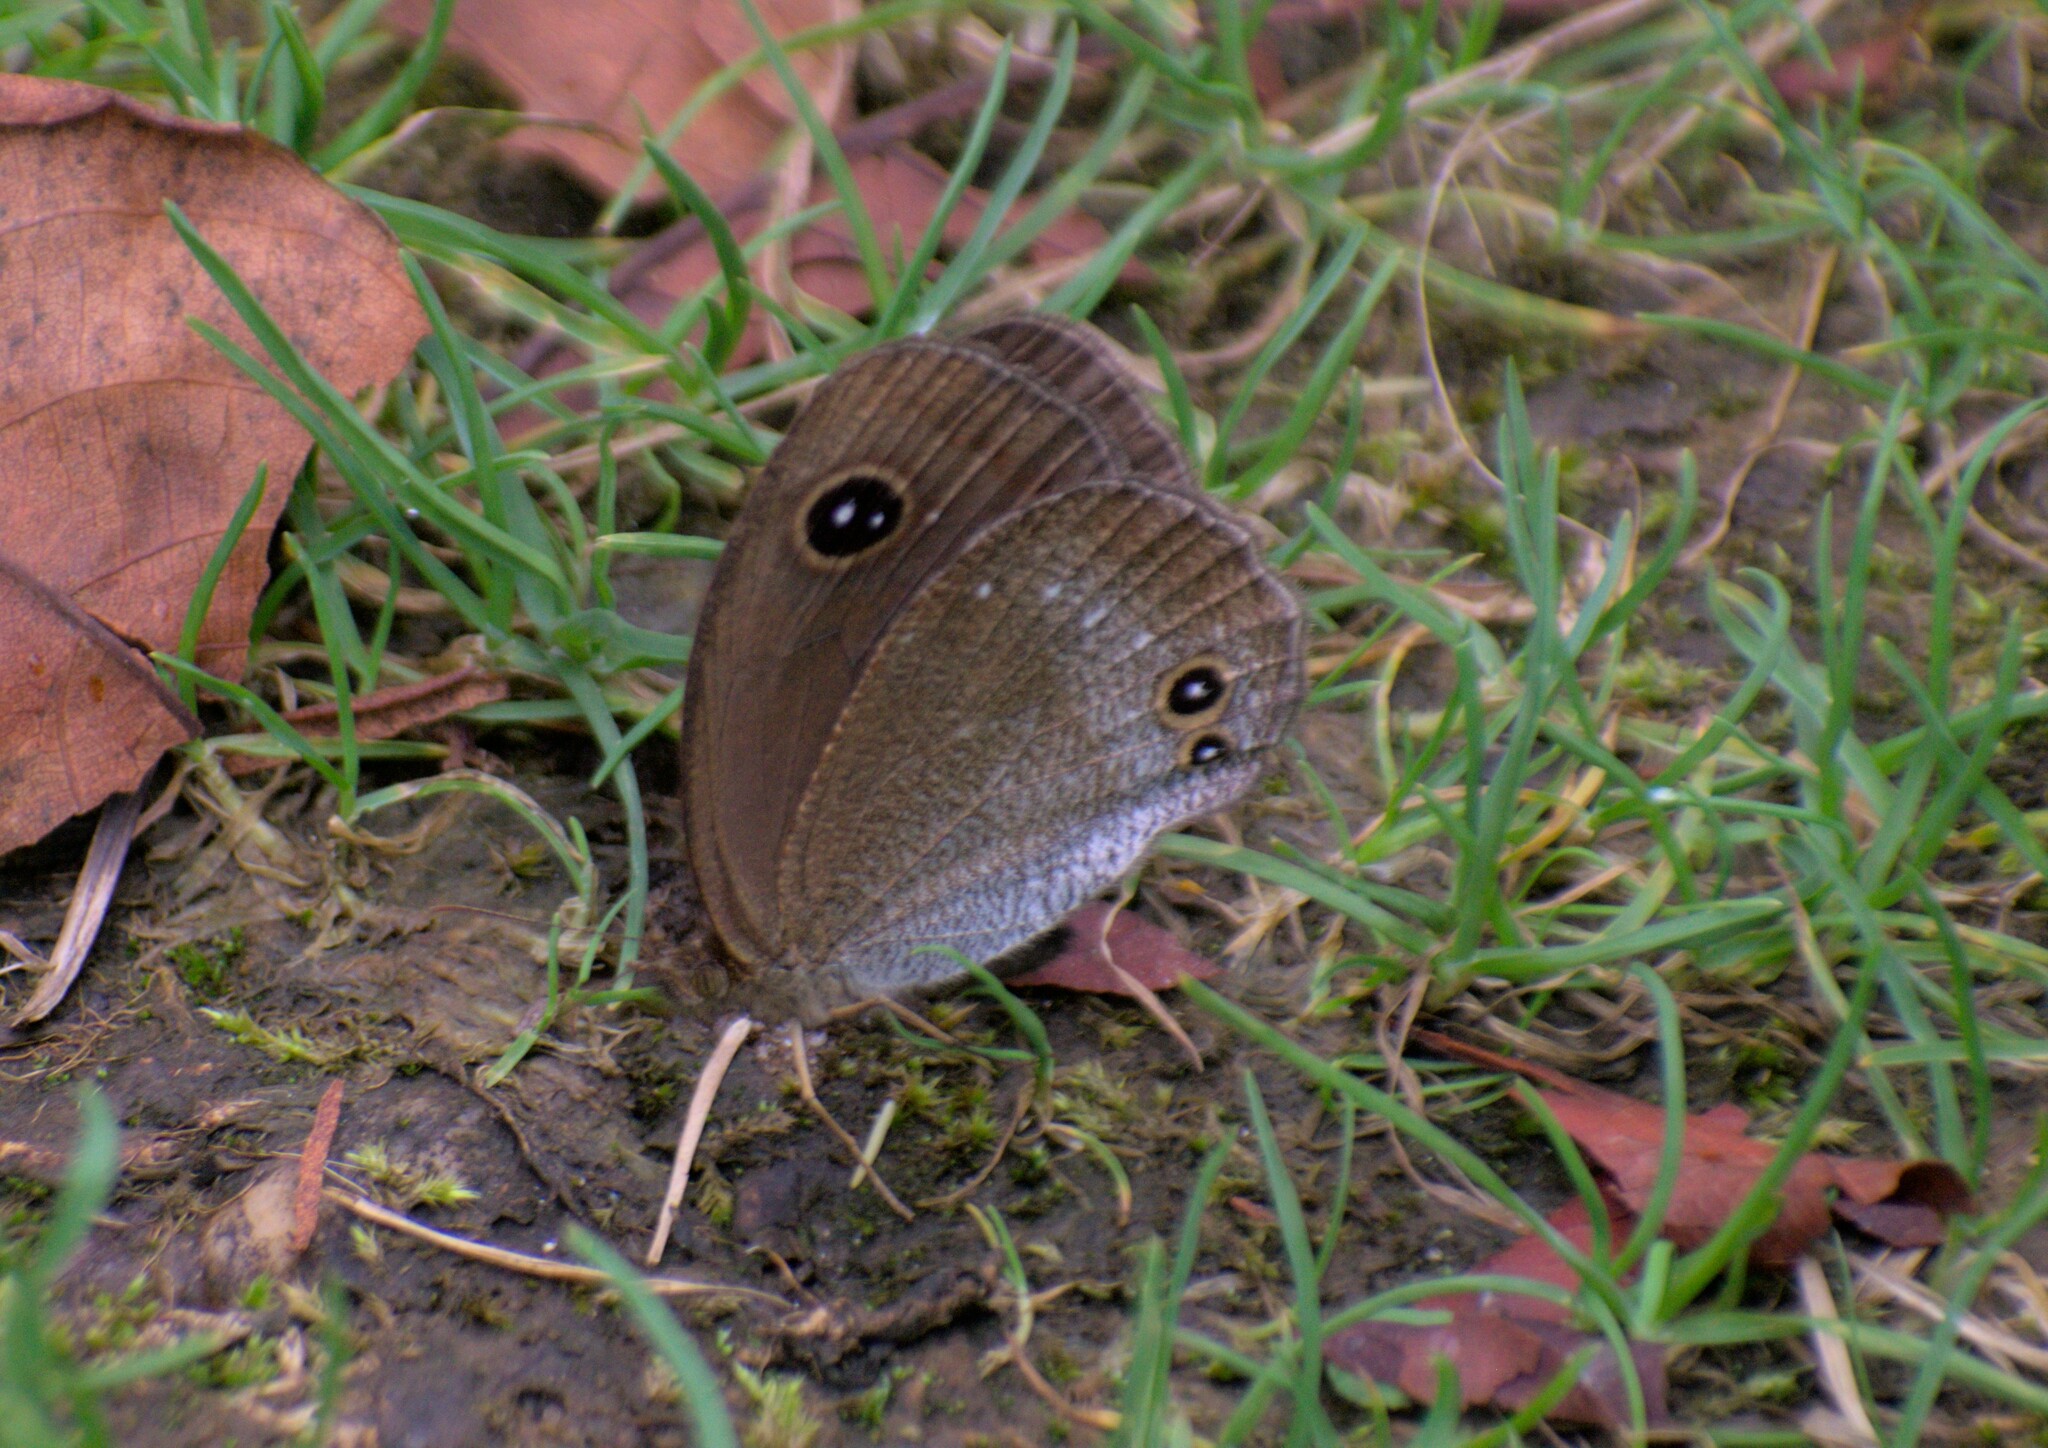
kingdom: Animalia
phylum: Arthropoda
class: Insecta
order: Lepidoptera
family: Nymphalidae
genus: Callerebia
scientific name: Callerebia scanda
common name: Pallid argus
